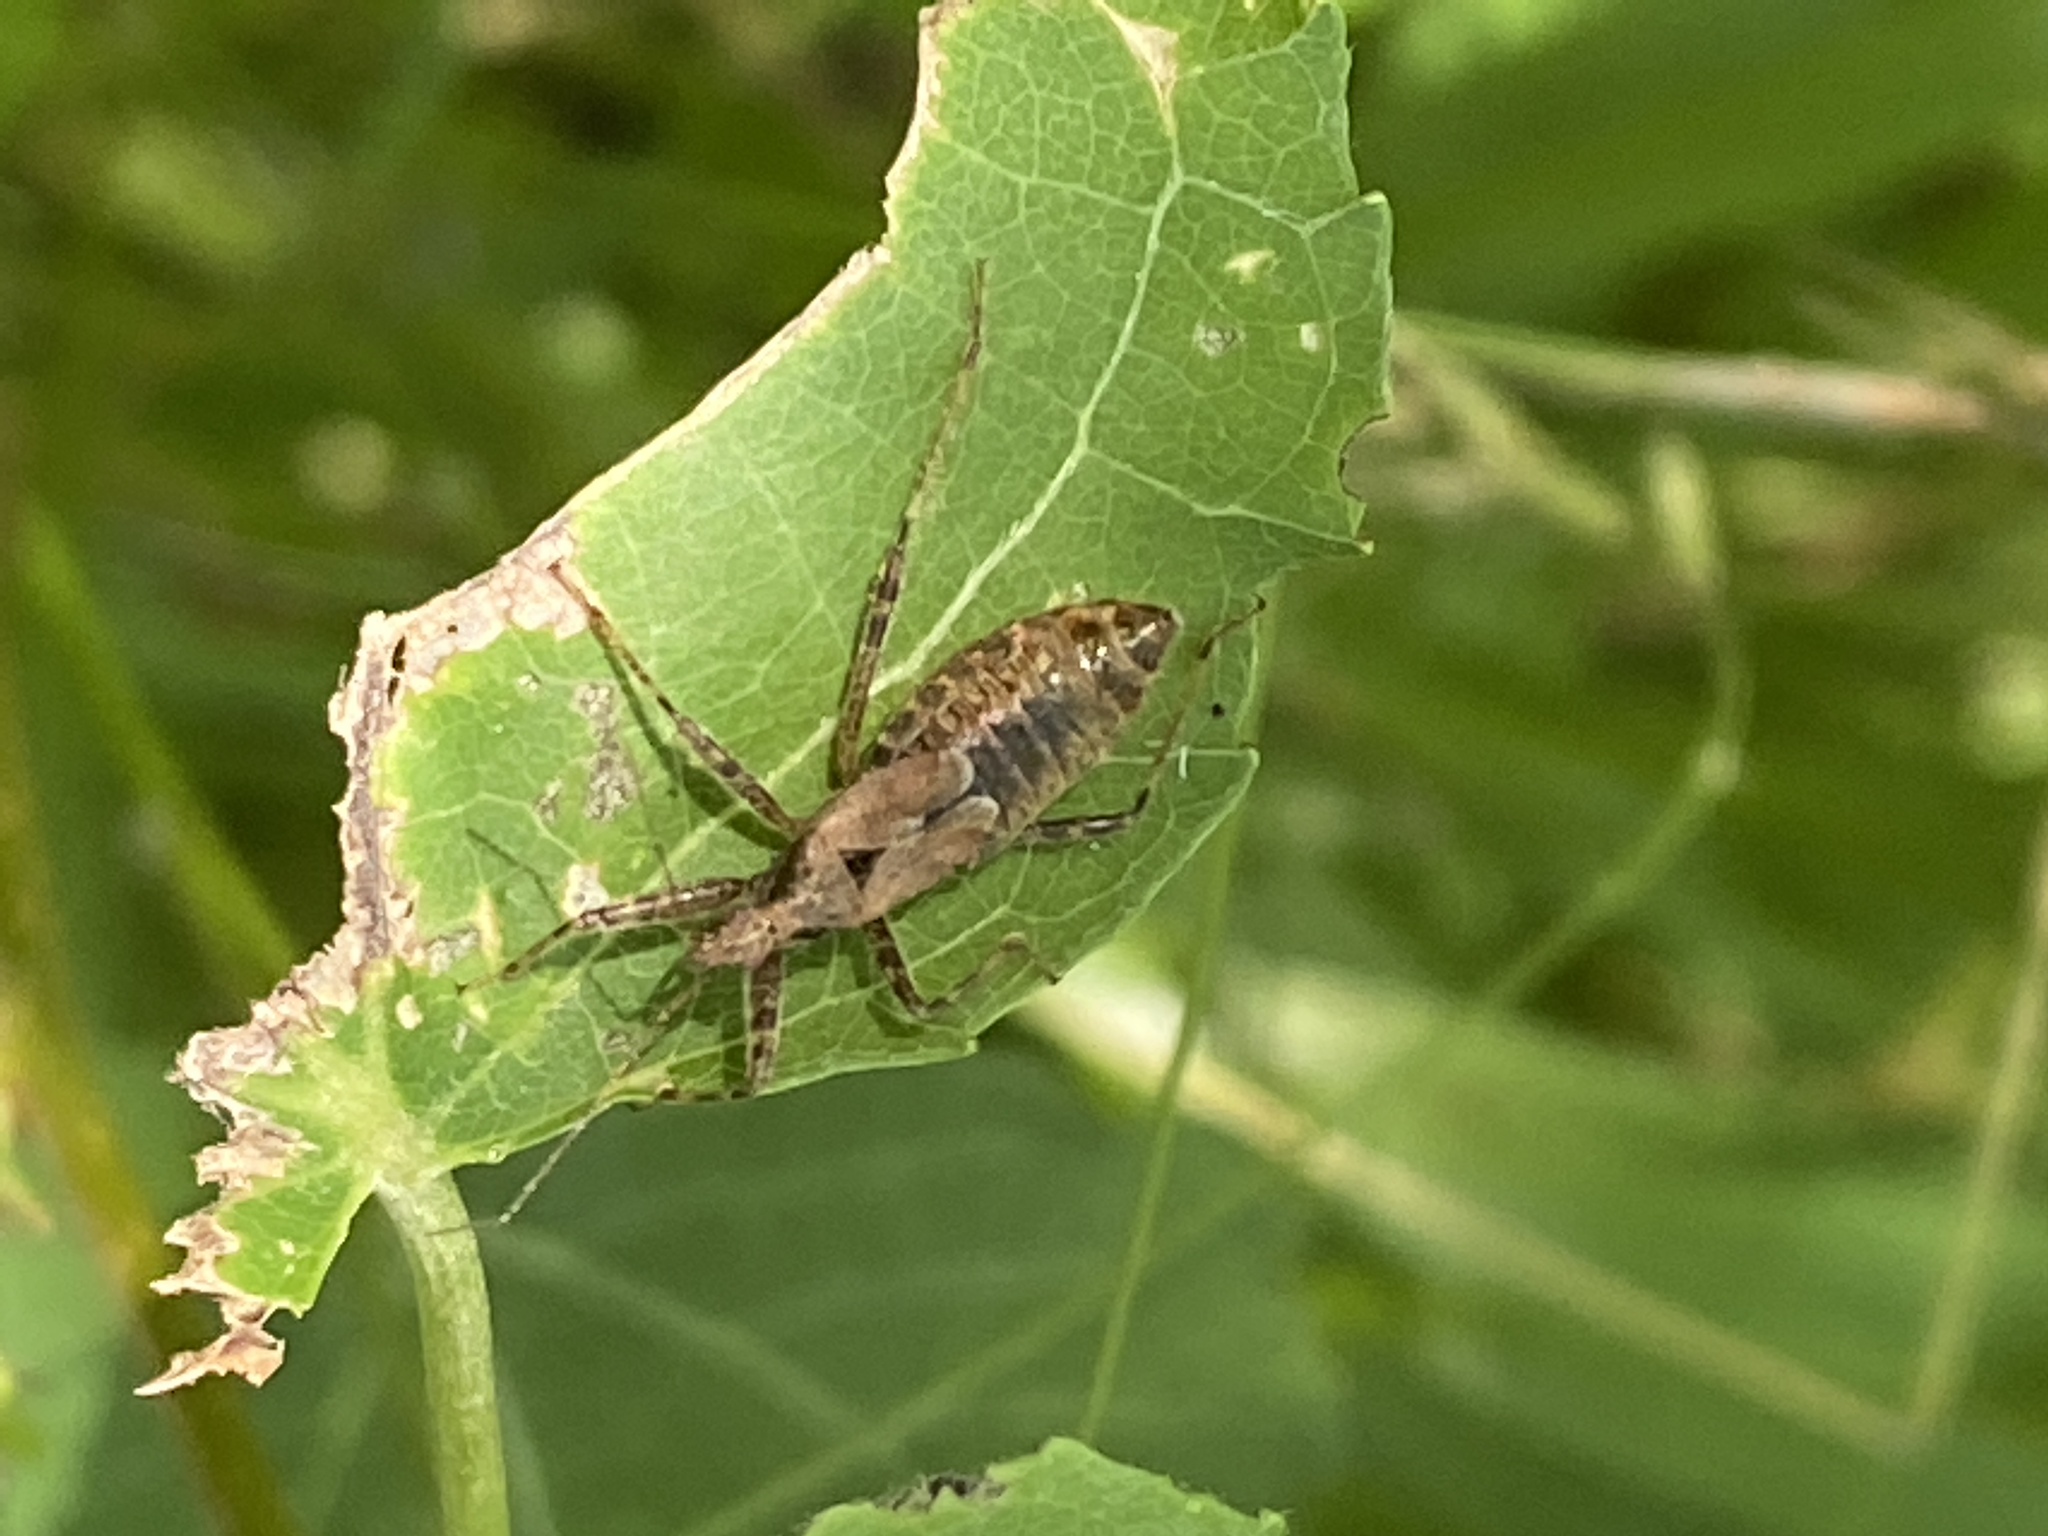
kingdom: Animalia
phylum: Arthropoda
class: Insecta
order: Hemiptera
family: Nabidae
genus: Himacerus
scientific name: Himacerus apterus
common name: Tree damsel bug
